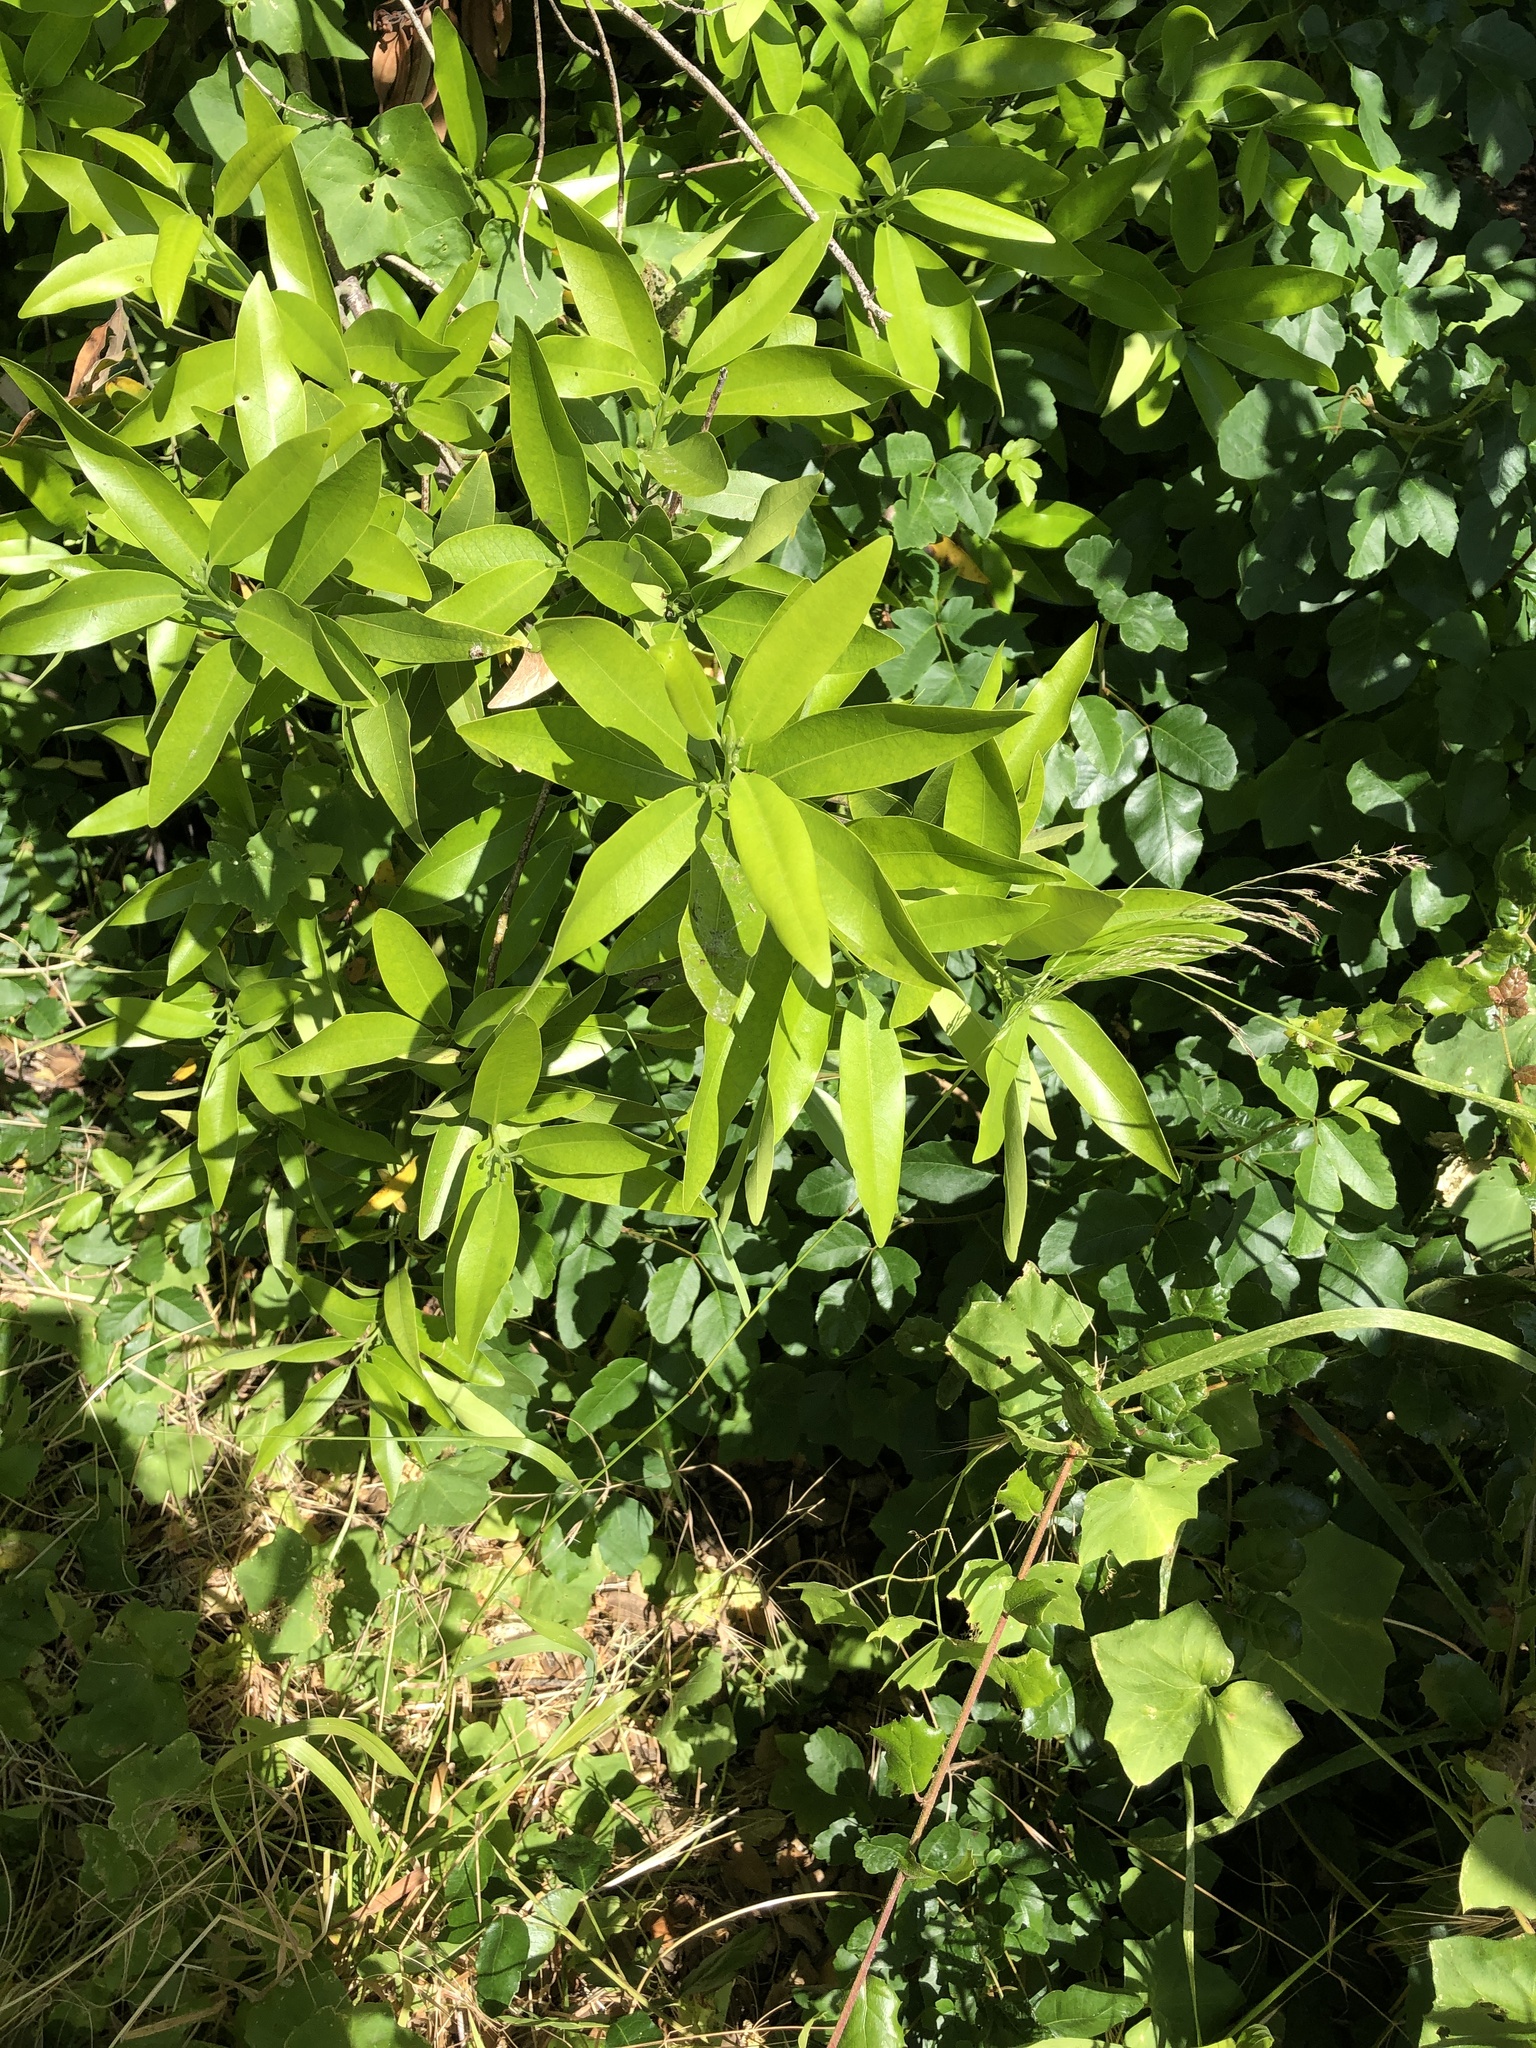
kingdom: Plantae
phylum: Tracheophyta
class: Magnoliopsida
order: Laurales
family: Lauraceae
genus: Umbellularia
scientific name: Umbellularia californica
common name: California bay
